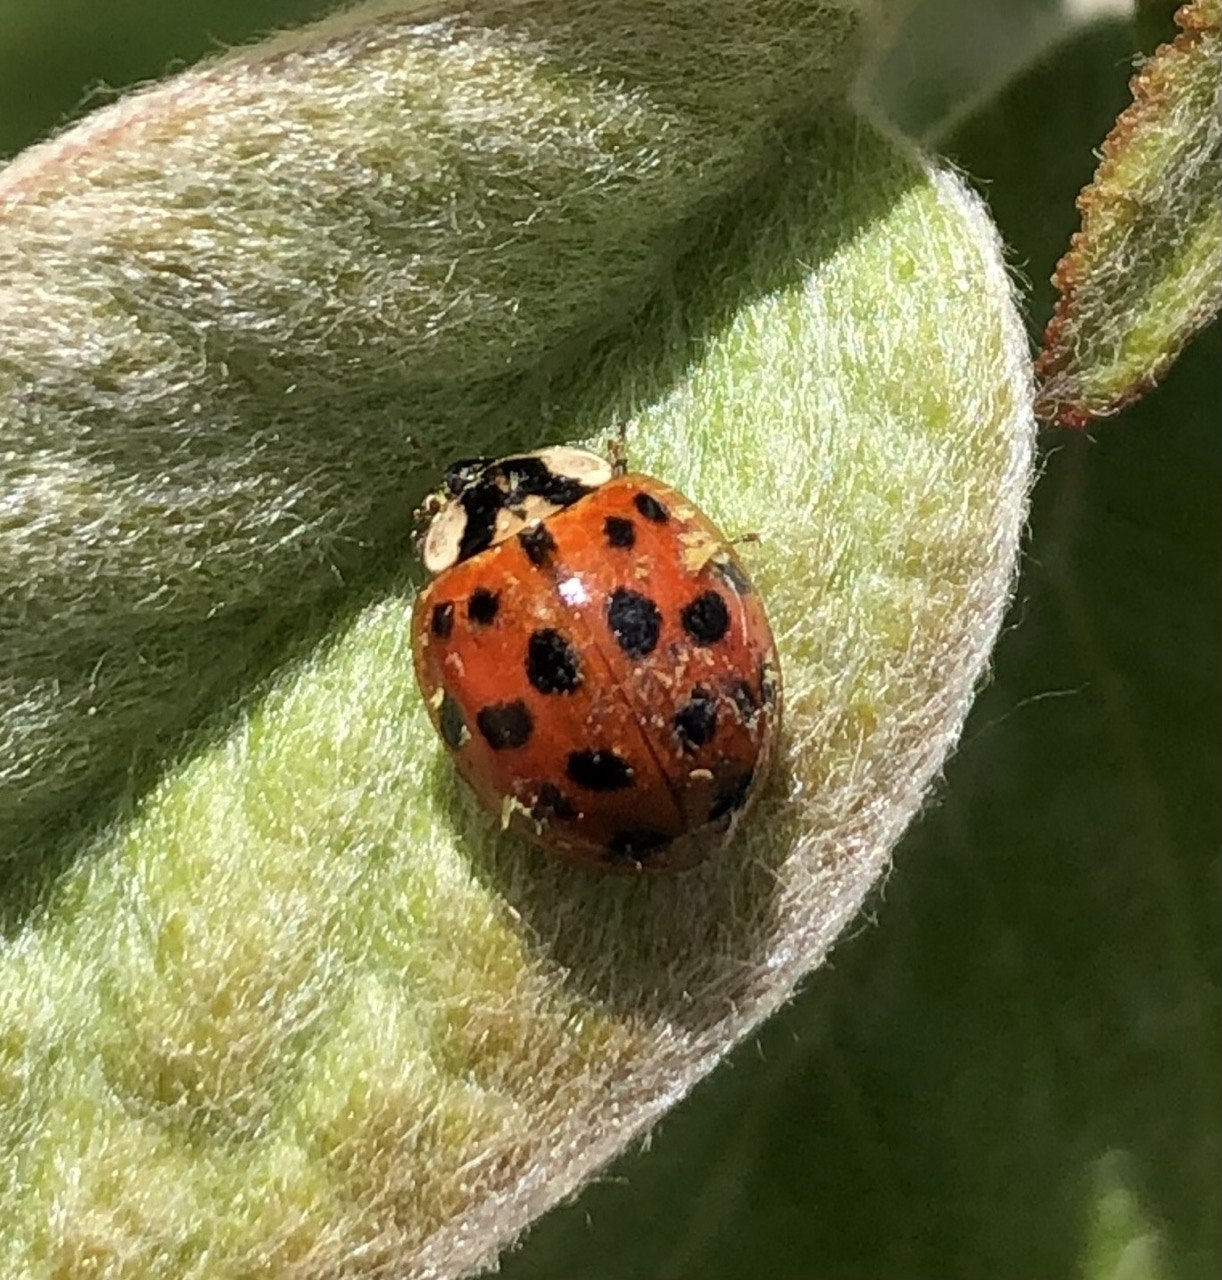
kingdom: Animalia
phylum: Arthropoda
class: Insecta
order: Coleoptera
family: Coccinellidae
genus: Harmonia
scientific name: Harmonia axyridis
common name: Harlequin ladybird
